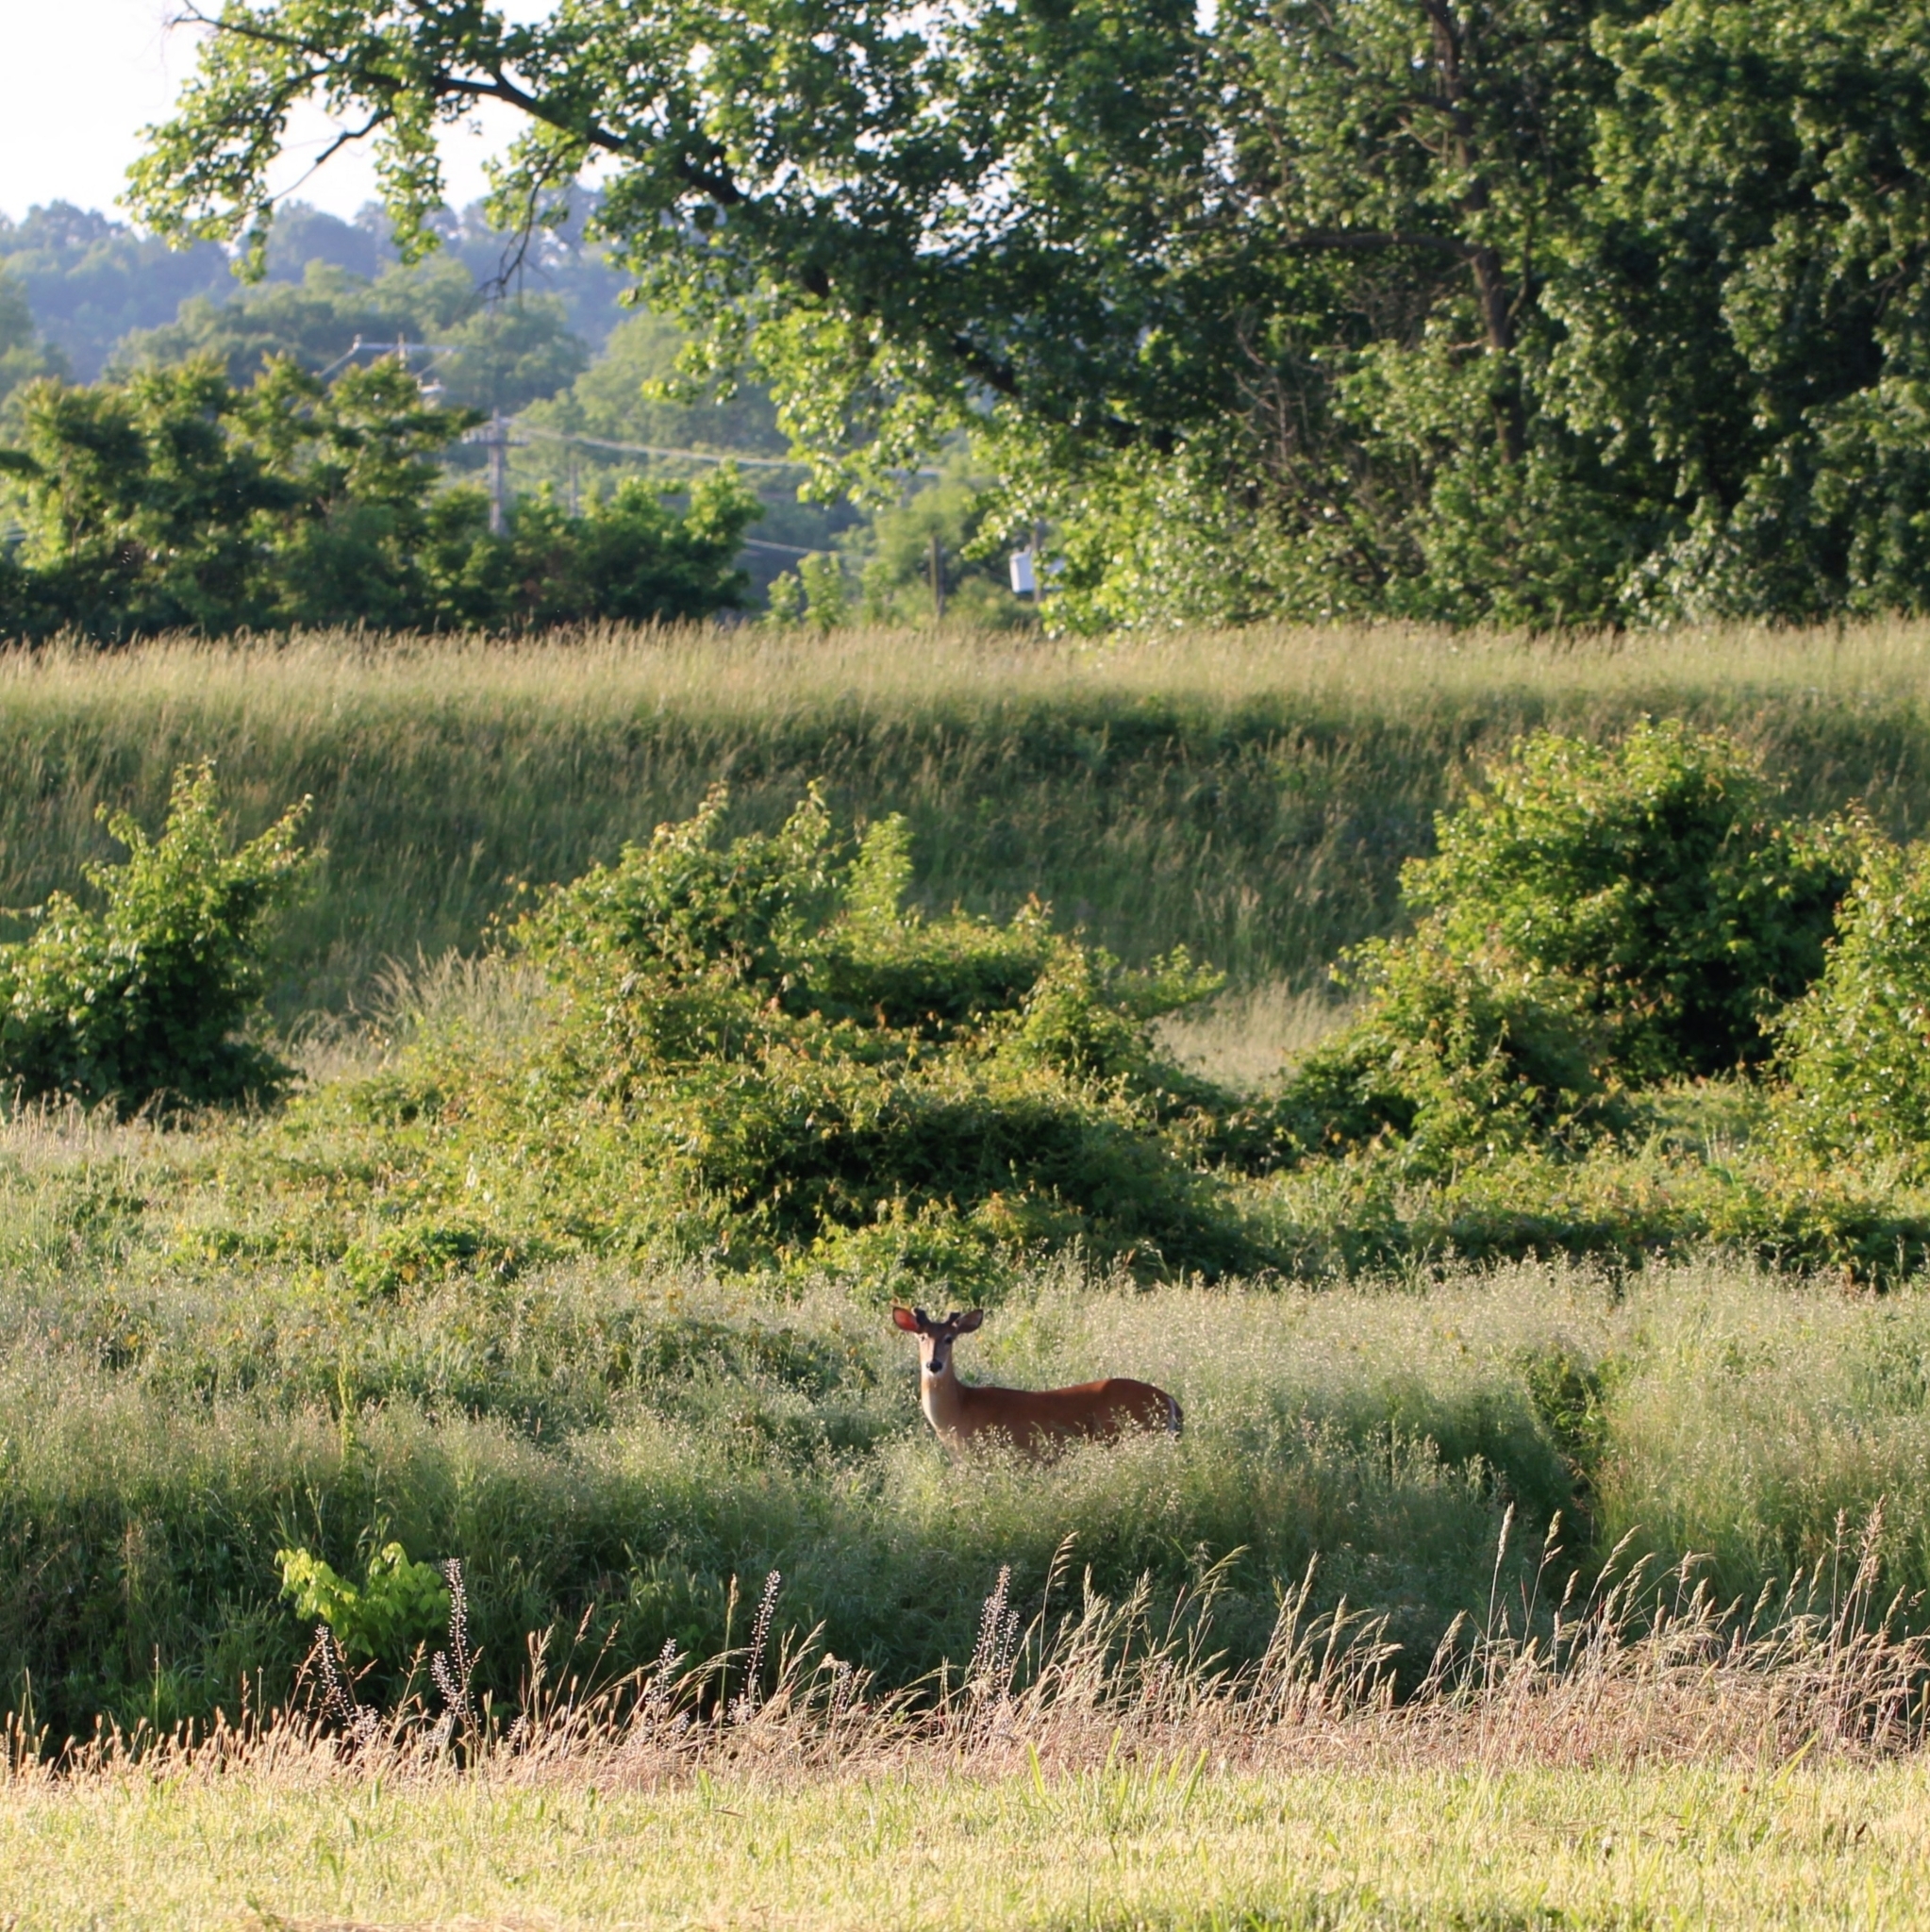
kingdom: Animalia
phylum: Chordata
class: Mammalia
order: Artiodactyla
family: Cervidae
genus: Odocoileus
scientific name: Odocoileus virginianus
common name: White-tailed deer
